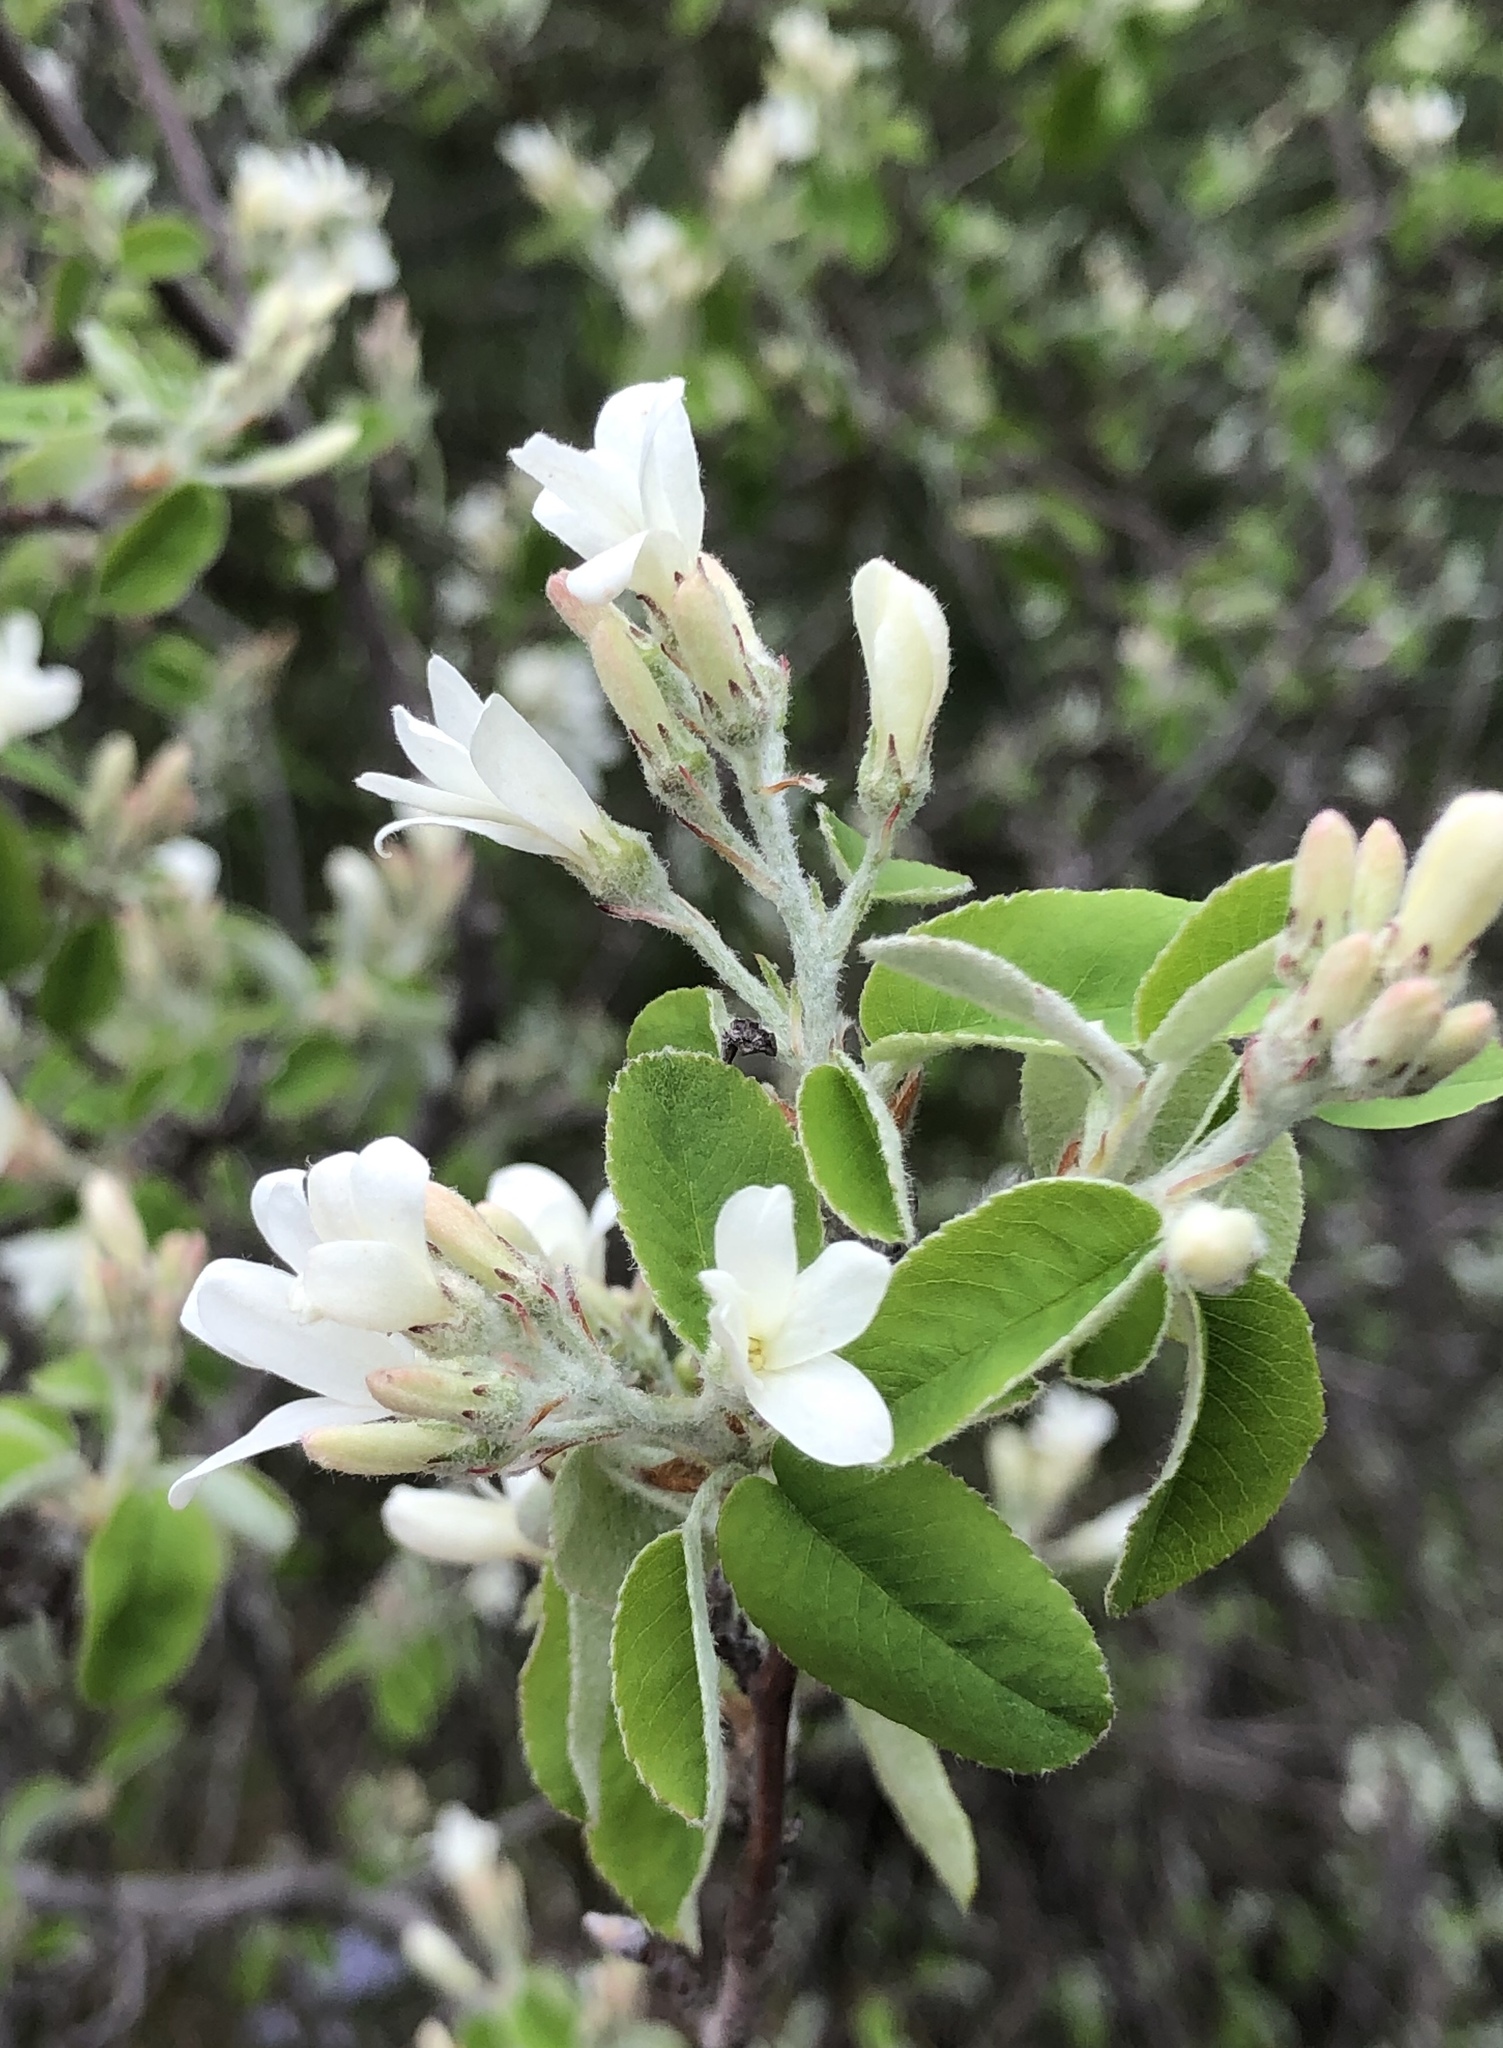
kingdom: Plantae
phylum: Tracheophyta
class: Magnoliopsida
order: Rosales
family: Rosaceae
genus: Amelanchier
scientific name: Amelanchier ovalis
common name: Serviceberry
